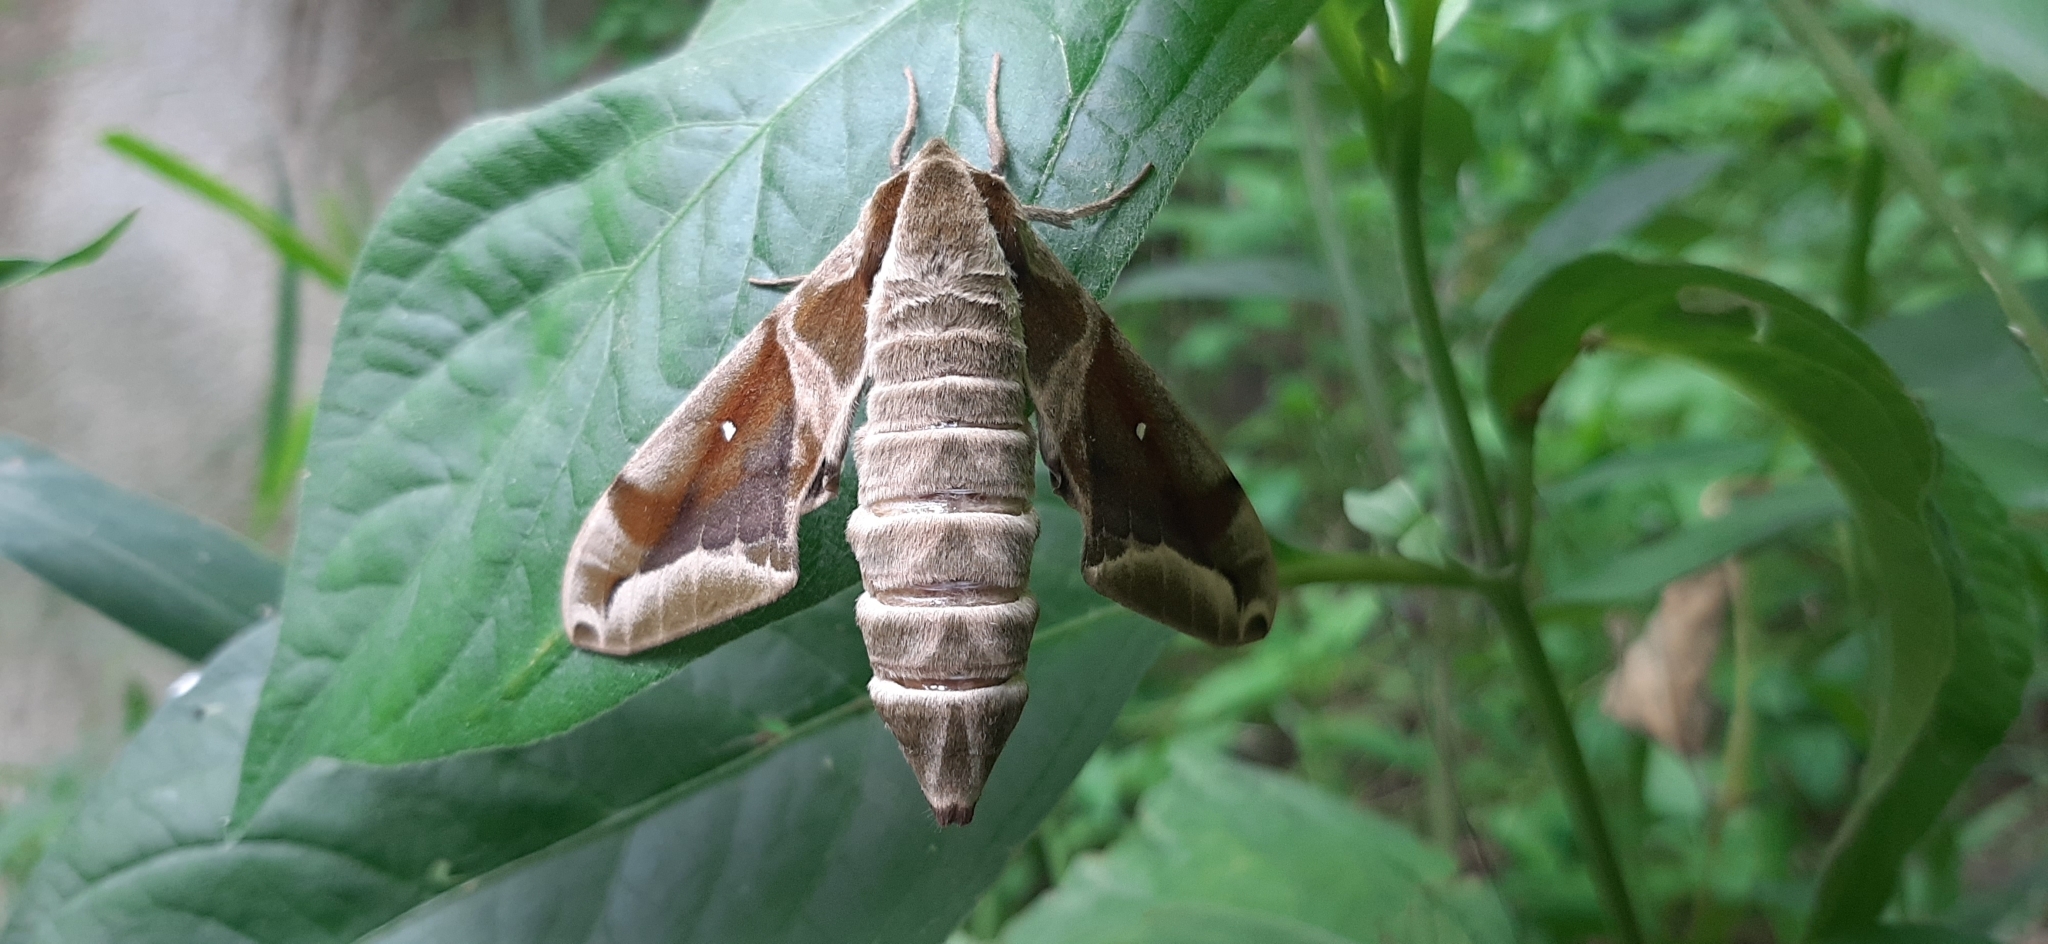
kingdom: Animalia
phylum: Arthropoda
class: Insecta
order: Lepidoptera
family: Sphingidae
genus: Parum
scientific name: Parum colligata
